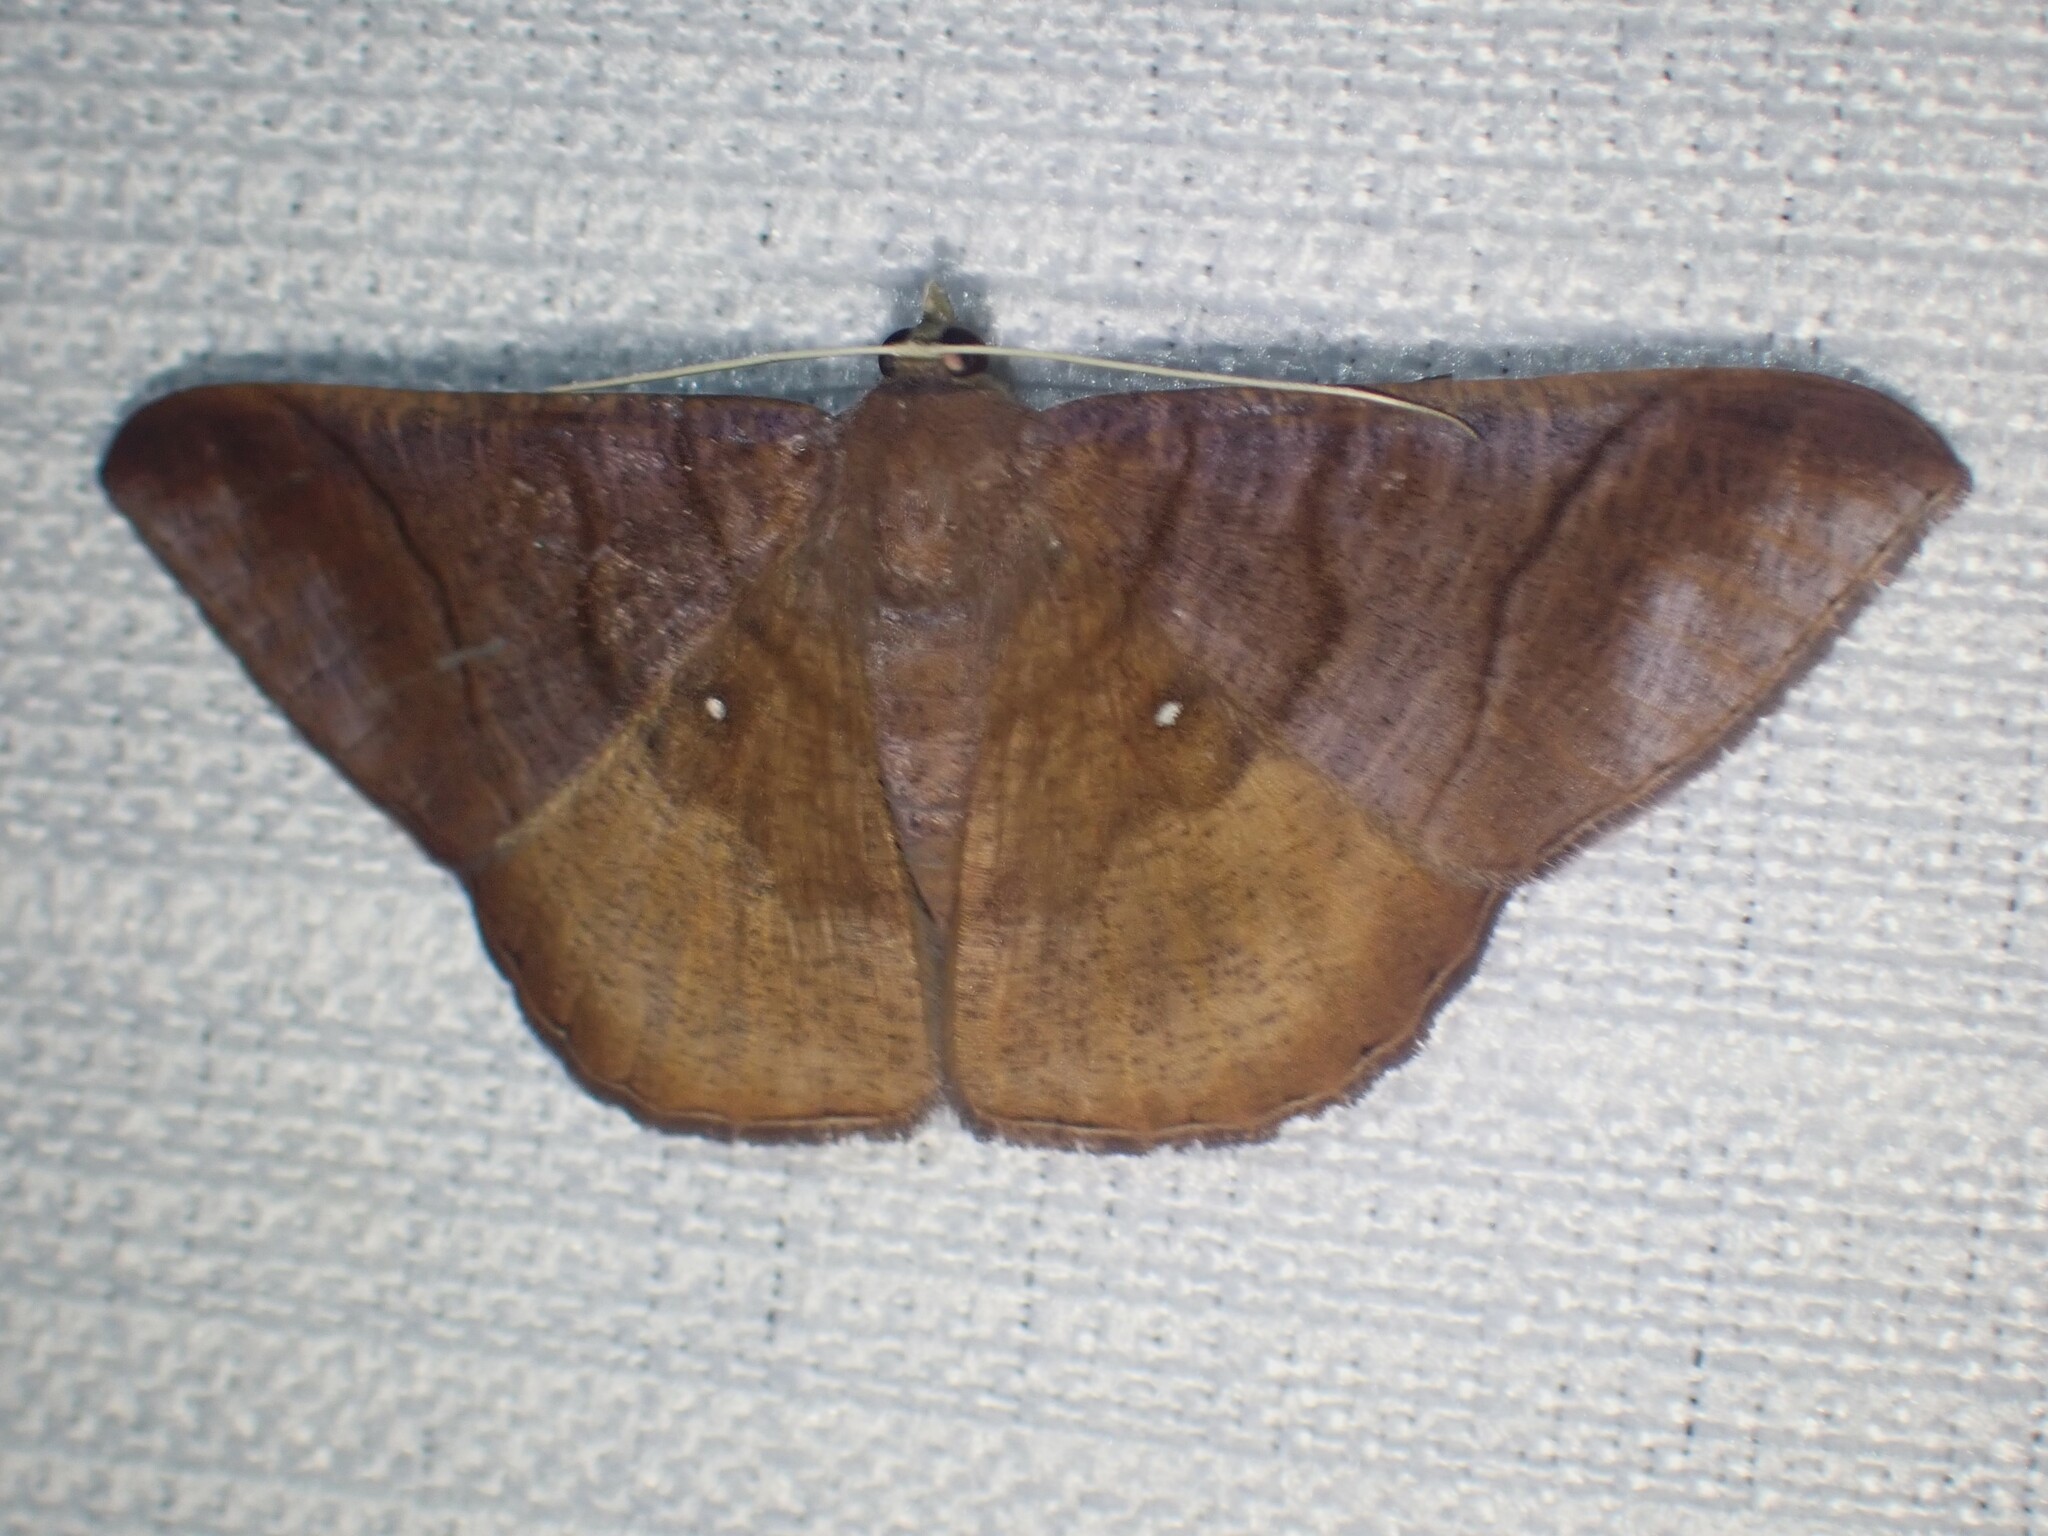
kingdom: Animalia
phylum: Arthropoda
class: Insecta
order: Lepidoptera
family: Geometridae
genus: Sphacelodes
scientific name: Sphacelodes vulneraria
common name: Looper moth
